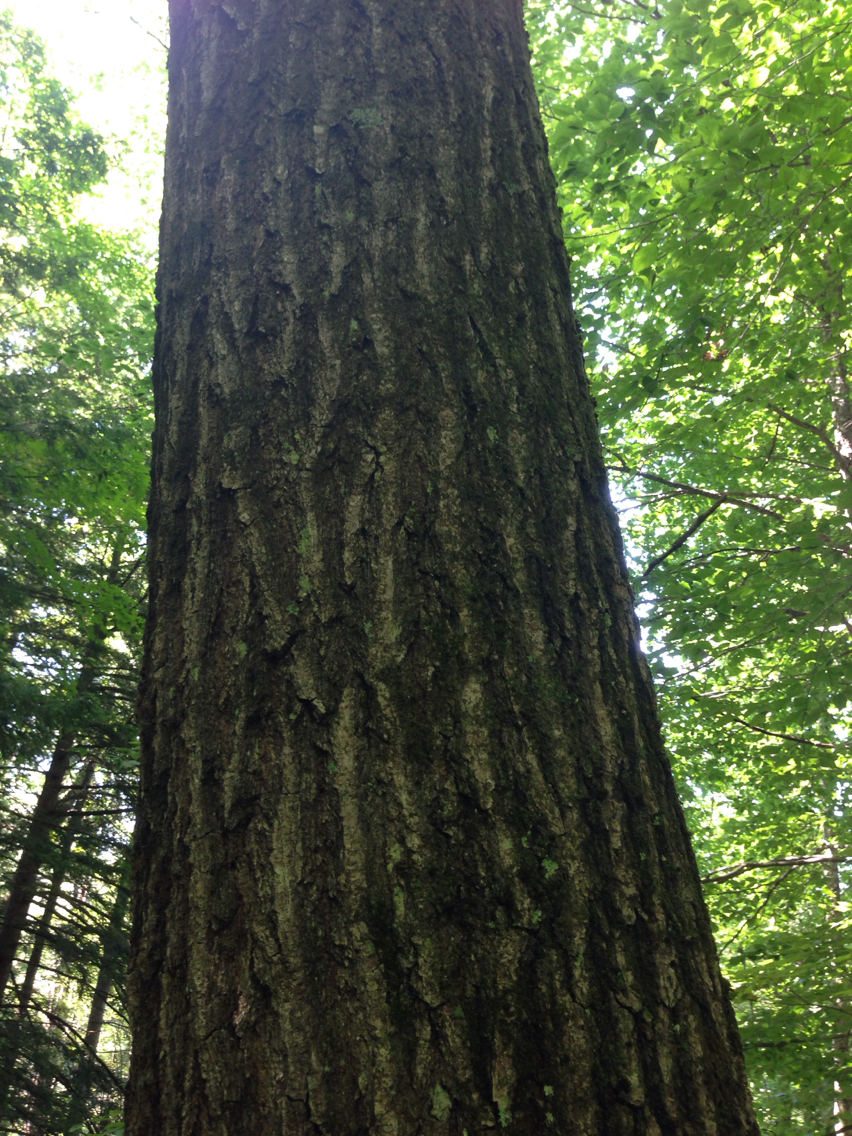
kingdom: Plantae
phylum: Tracheophyta
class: Magnoliopsida
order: Fagales
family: Fagaceae
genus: Quercus
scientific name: Quercus rubra
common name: Red oak
